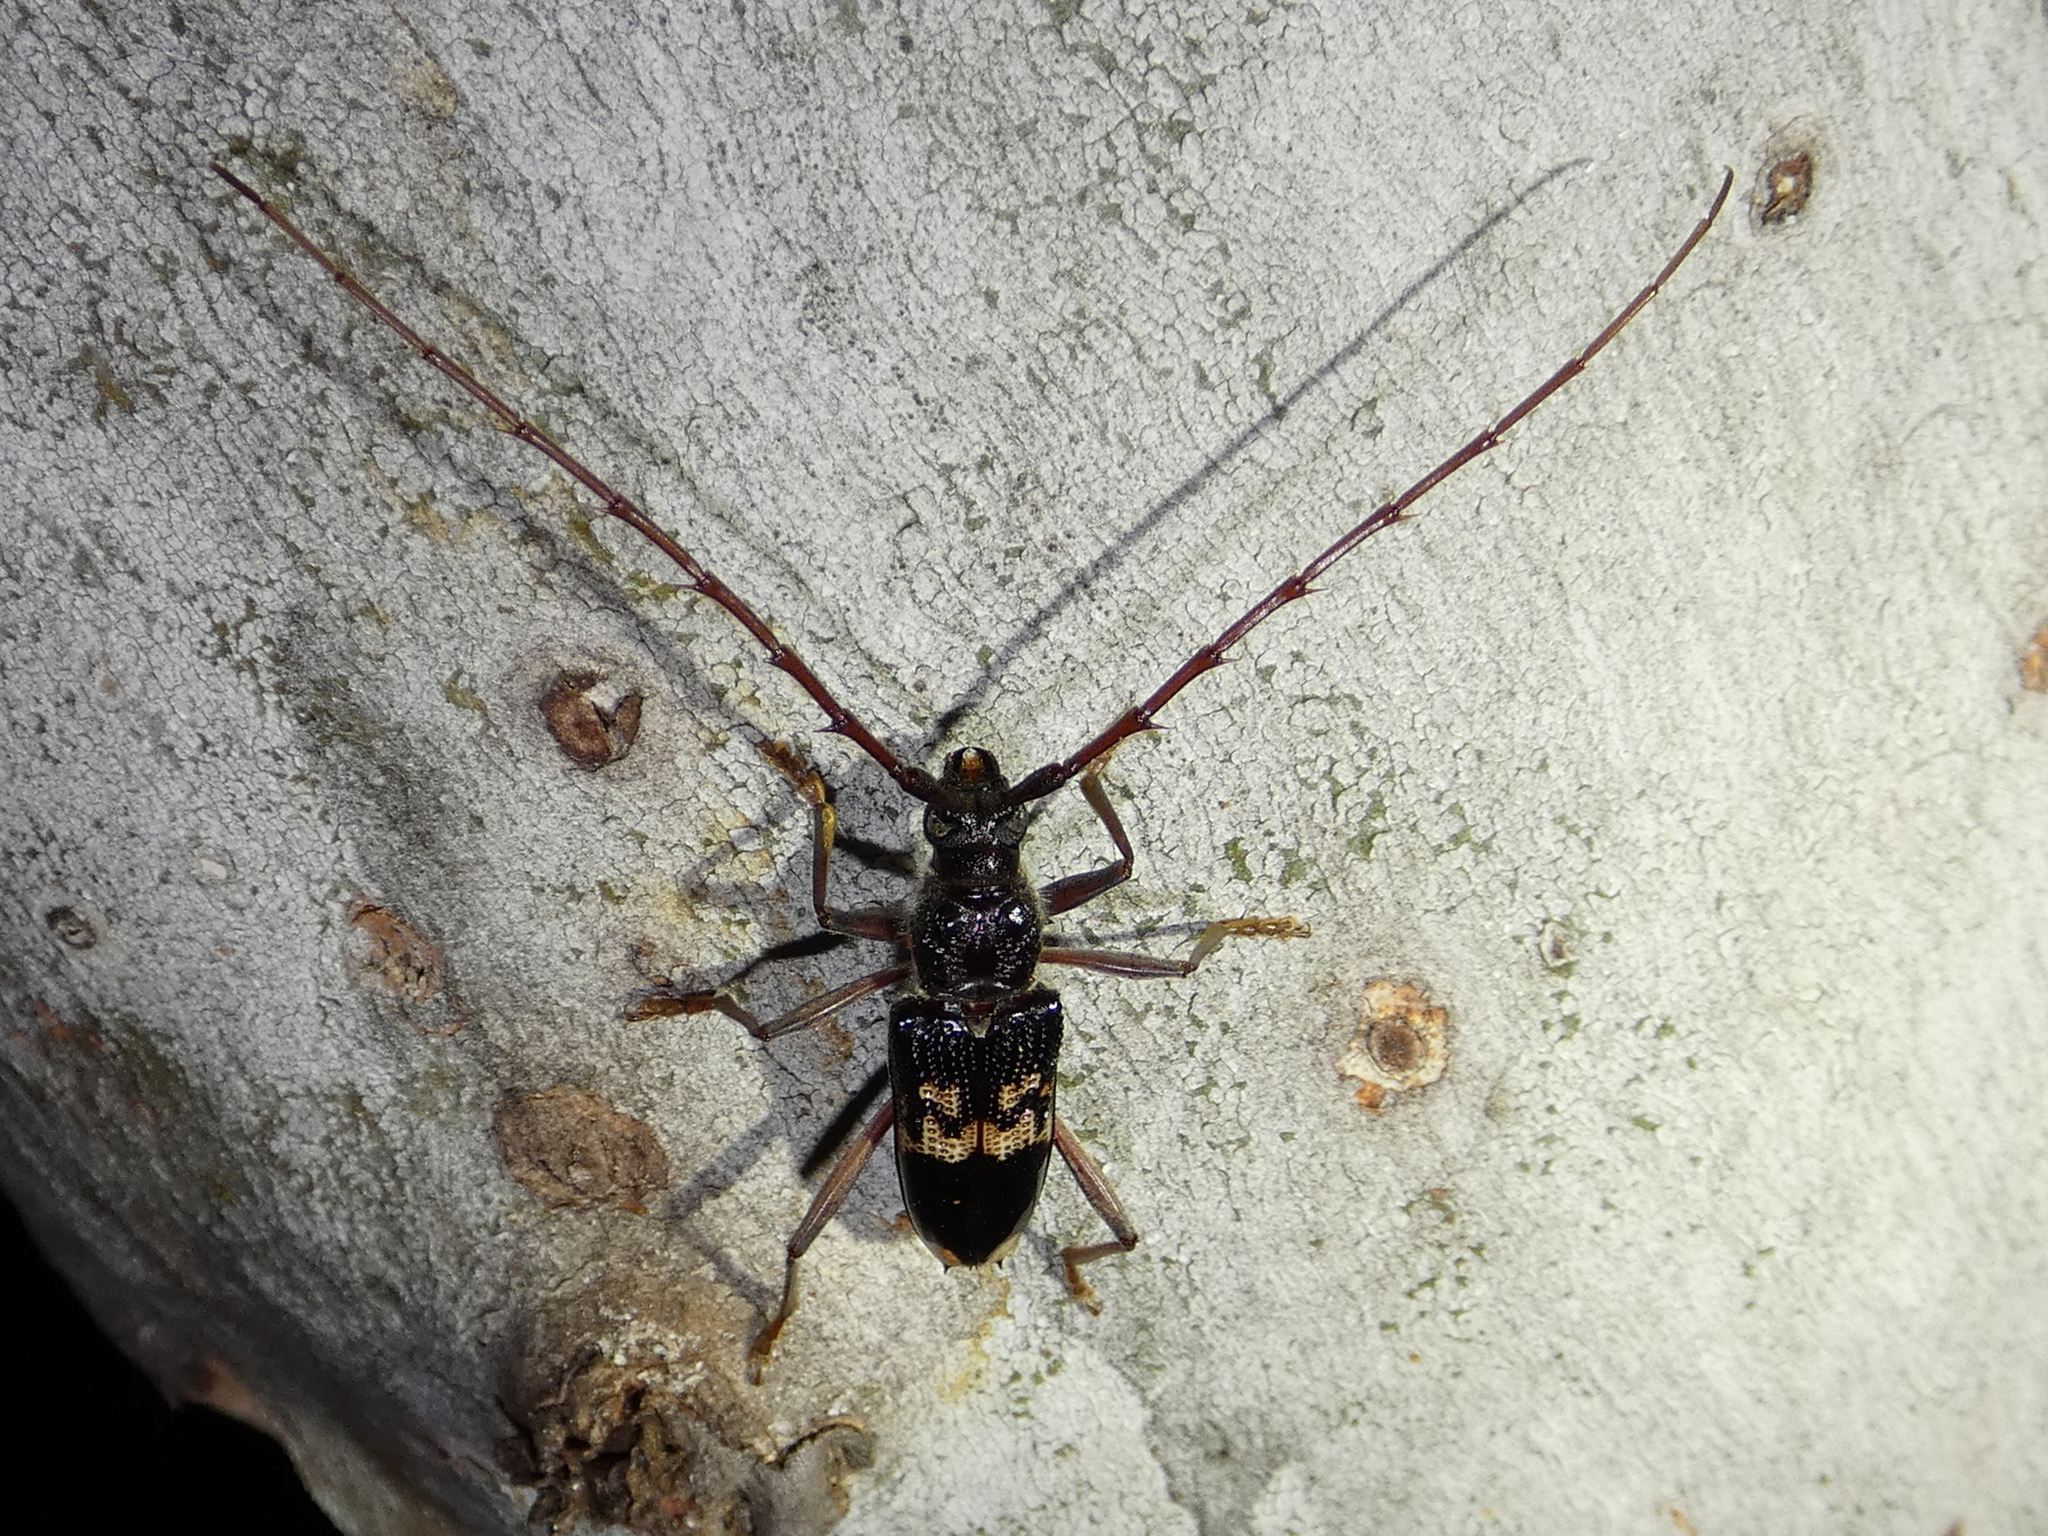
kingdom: Animalia
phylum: Arthropoda
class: Insecta
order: Coleoptera
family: Cerambycidae
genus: Phoracantha
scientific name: Phoracantha semipunctata
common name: Eucalyptus longhorn borer
